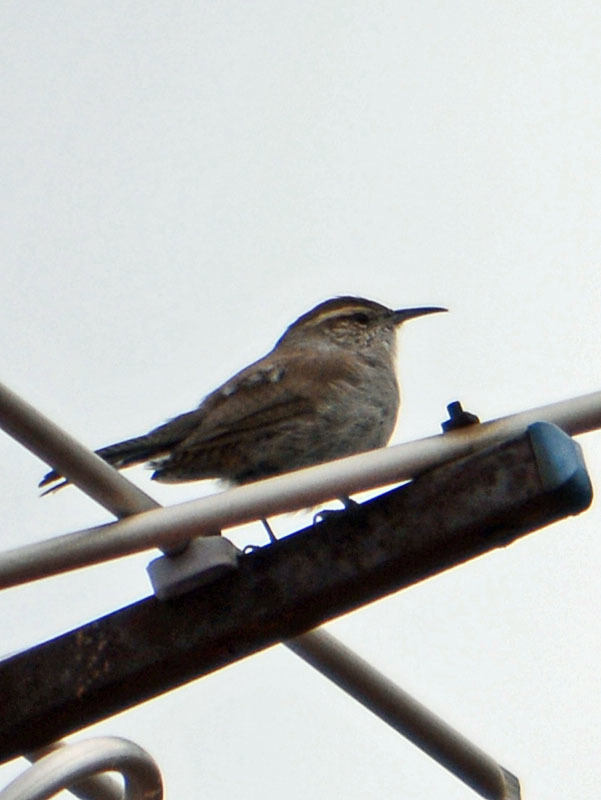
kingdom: Animalia
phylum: Chordata
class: Aves
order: Passeriformes
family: Troglodytidae
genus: Thryomanes
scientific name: Thryomanes bewickii
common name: Bewick's wren
